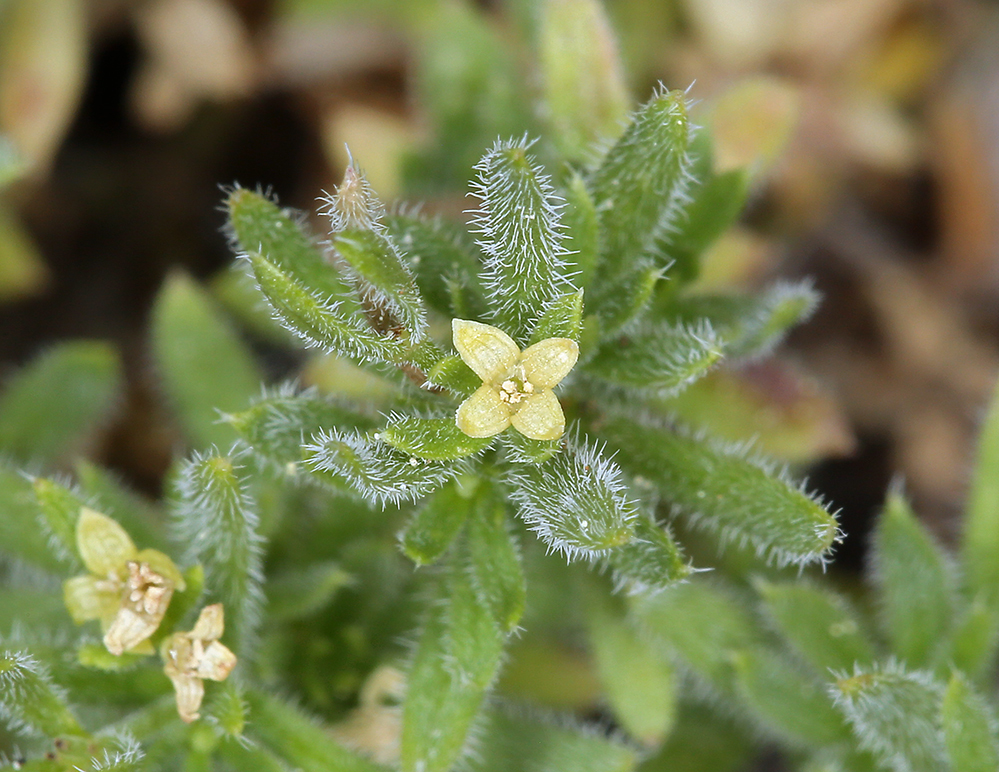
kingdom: Plantae
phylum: Tracheophyta
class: Magnoliopsida
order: Gentianales
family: Rubiaceae
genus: Galium
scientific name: Galium stebbinsii
